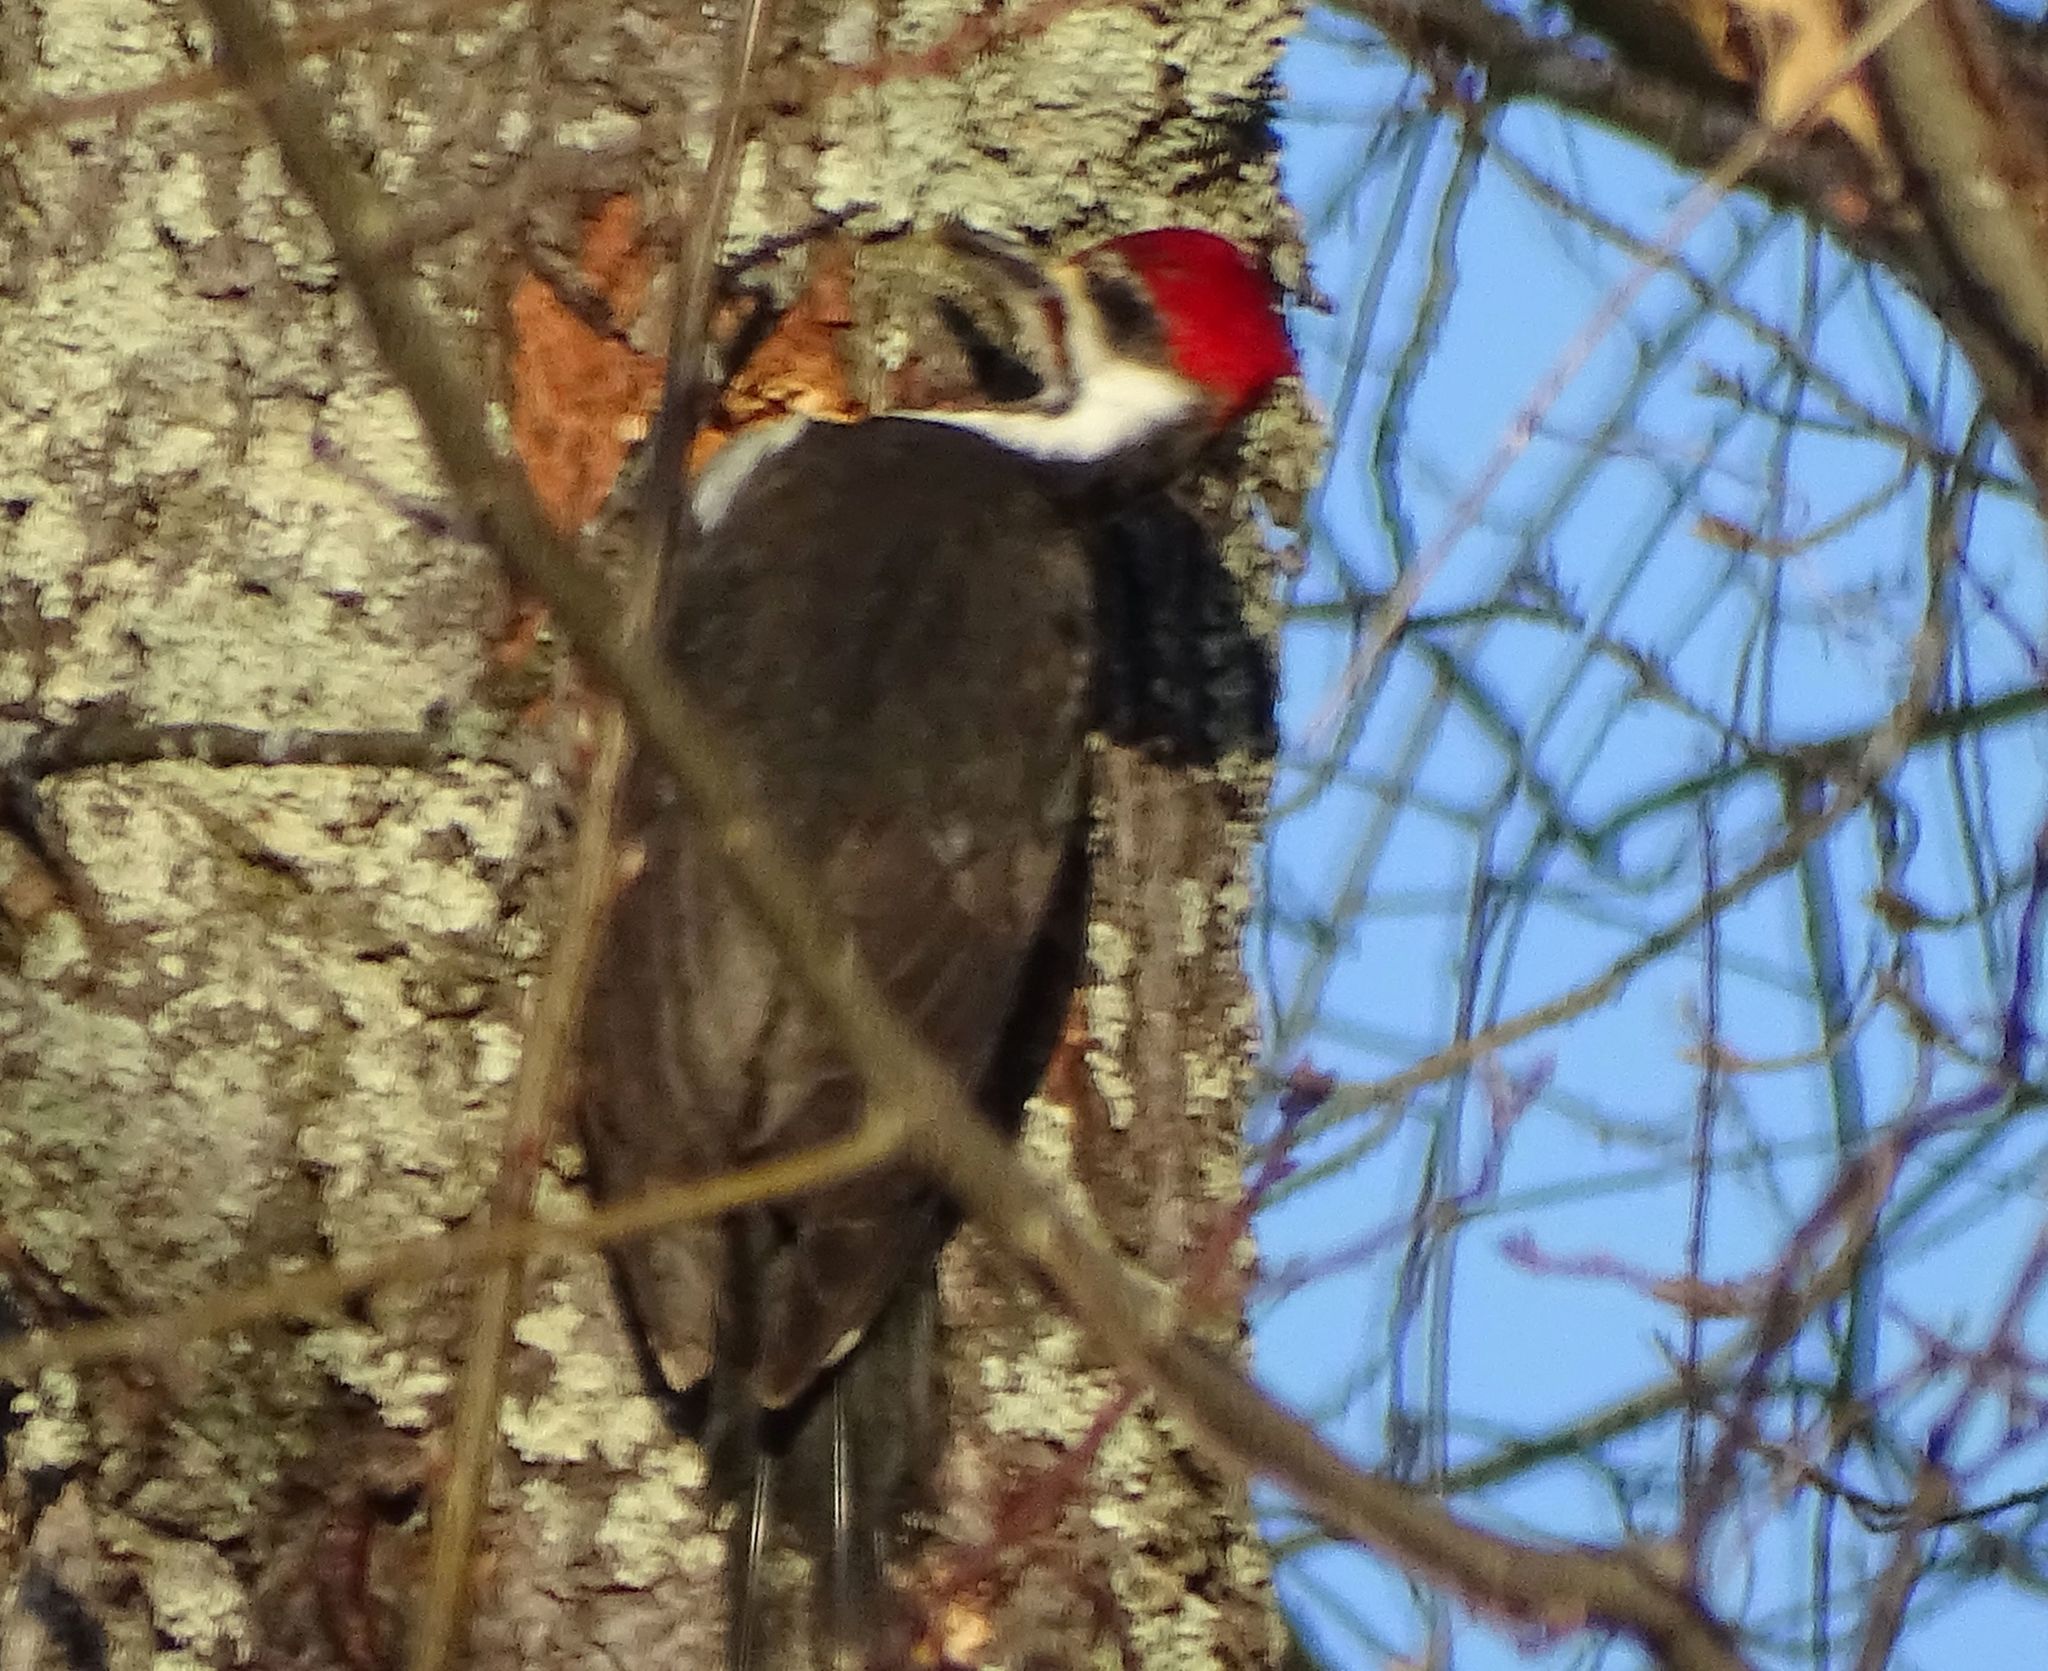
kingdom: Animalia
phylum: Chordata
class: Aves
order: Piciformes
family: Picidae
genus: Dryocopus
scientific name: Dryocopus pileatus
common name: Pileated woodpecker
